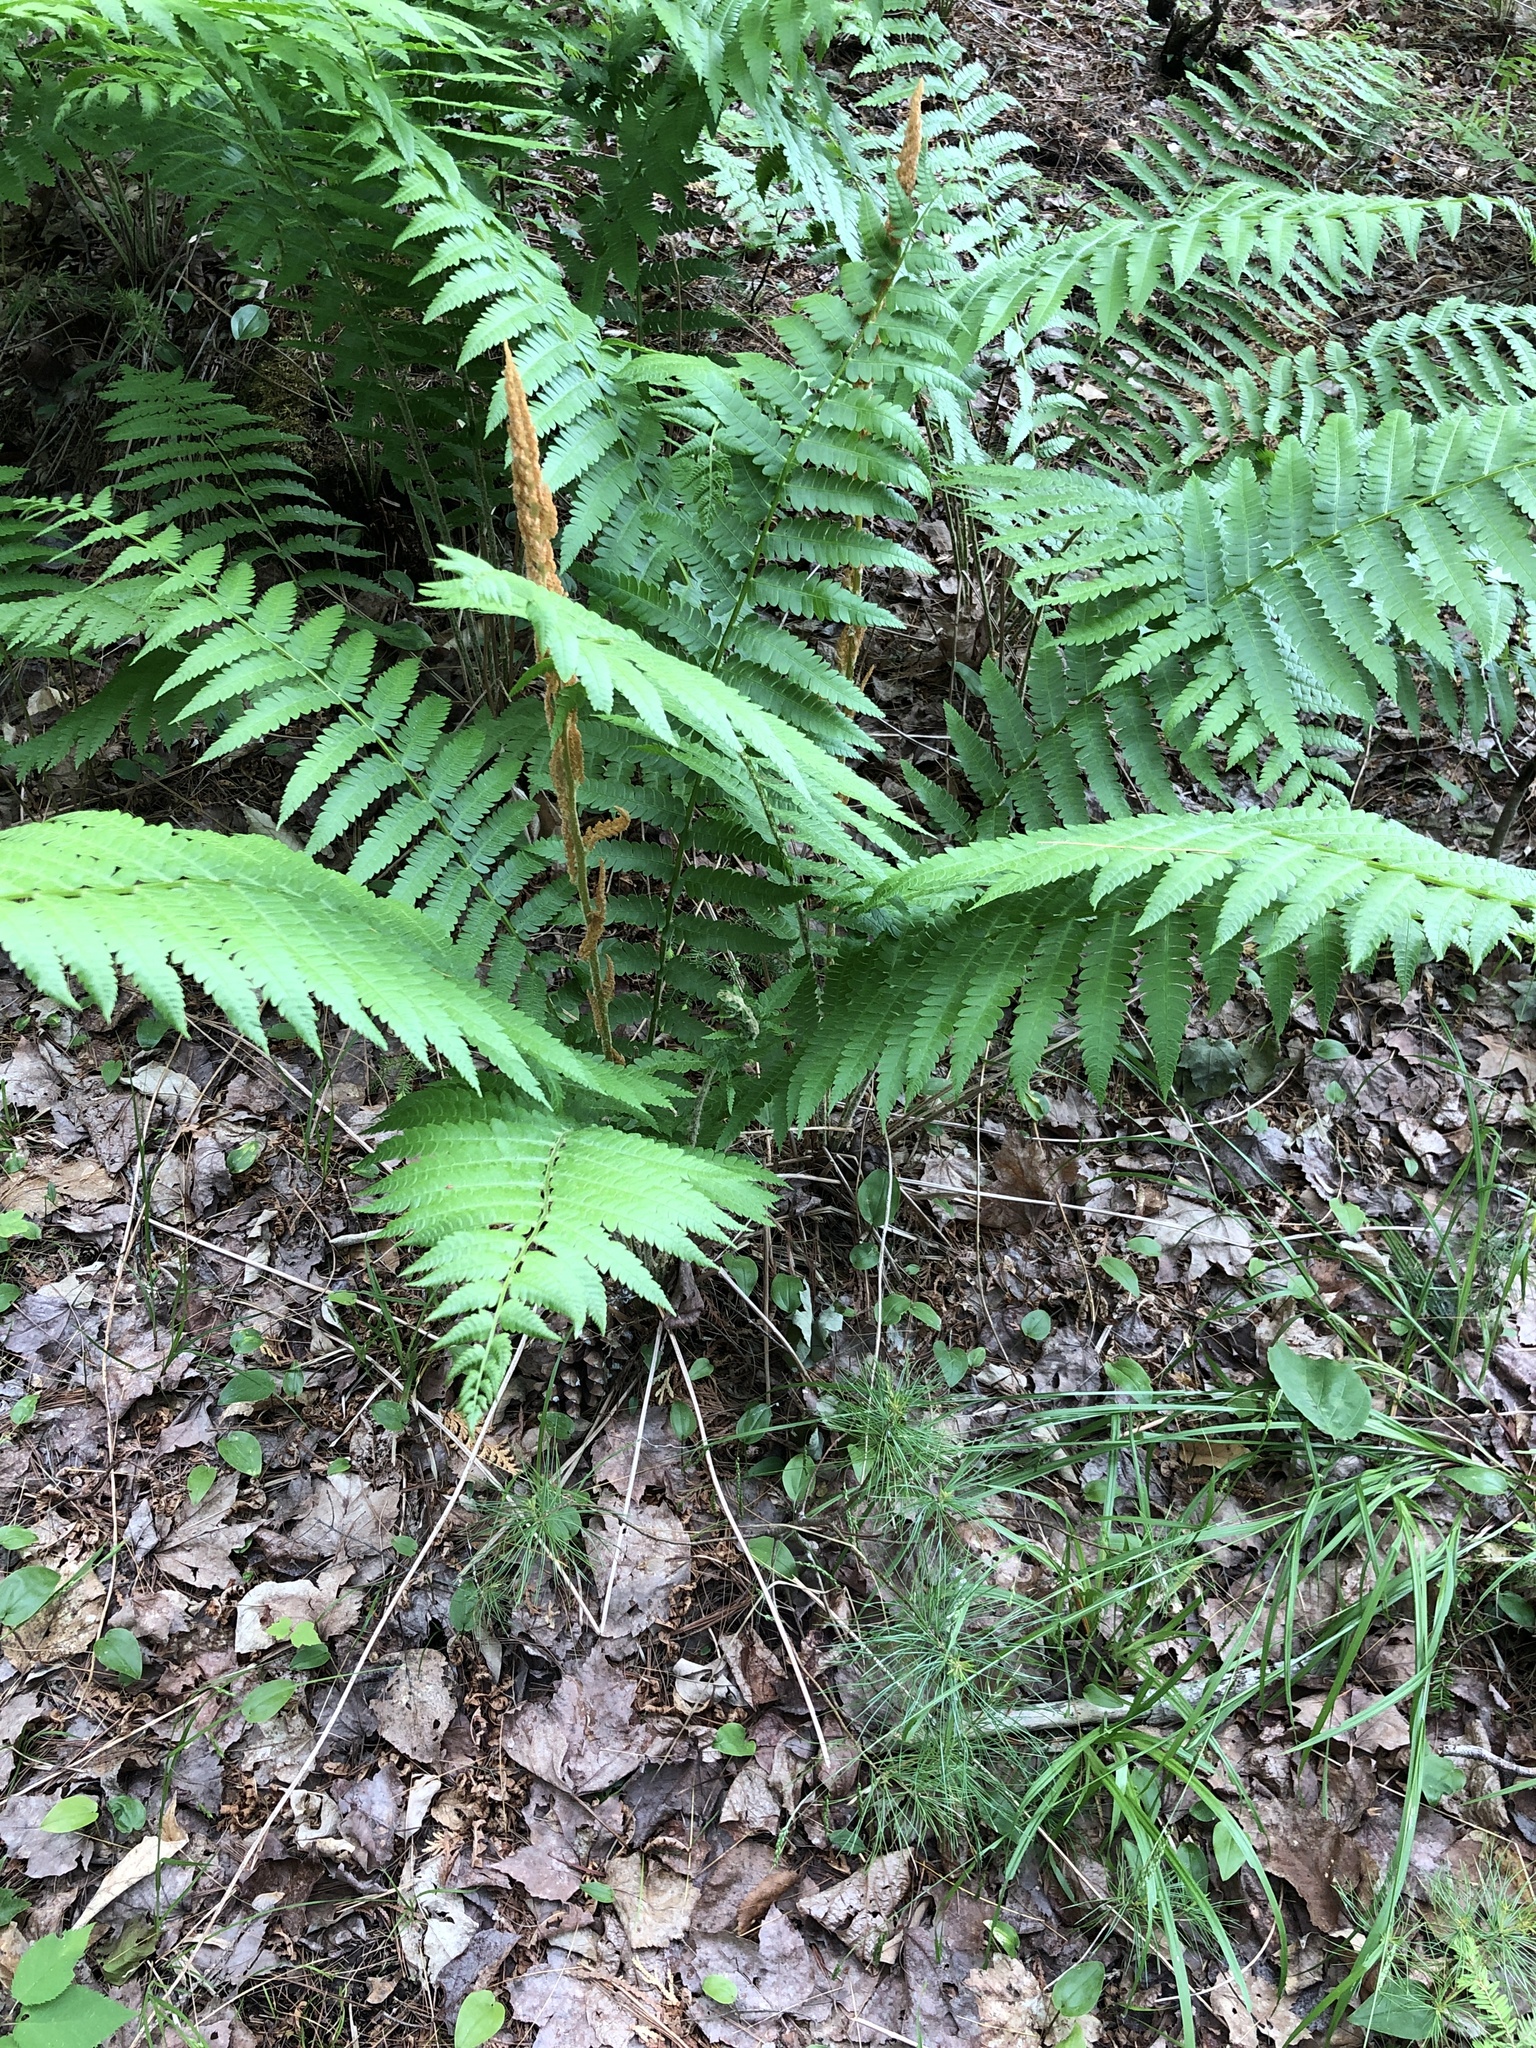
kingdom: Plantae
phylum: Tracheophyta
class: Polypodiopsida
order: Osmundales
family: Osmundaceae
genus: Osmundastrum
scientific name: Osmundastrum cinnamomeum
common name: Cinnamon fern
